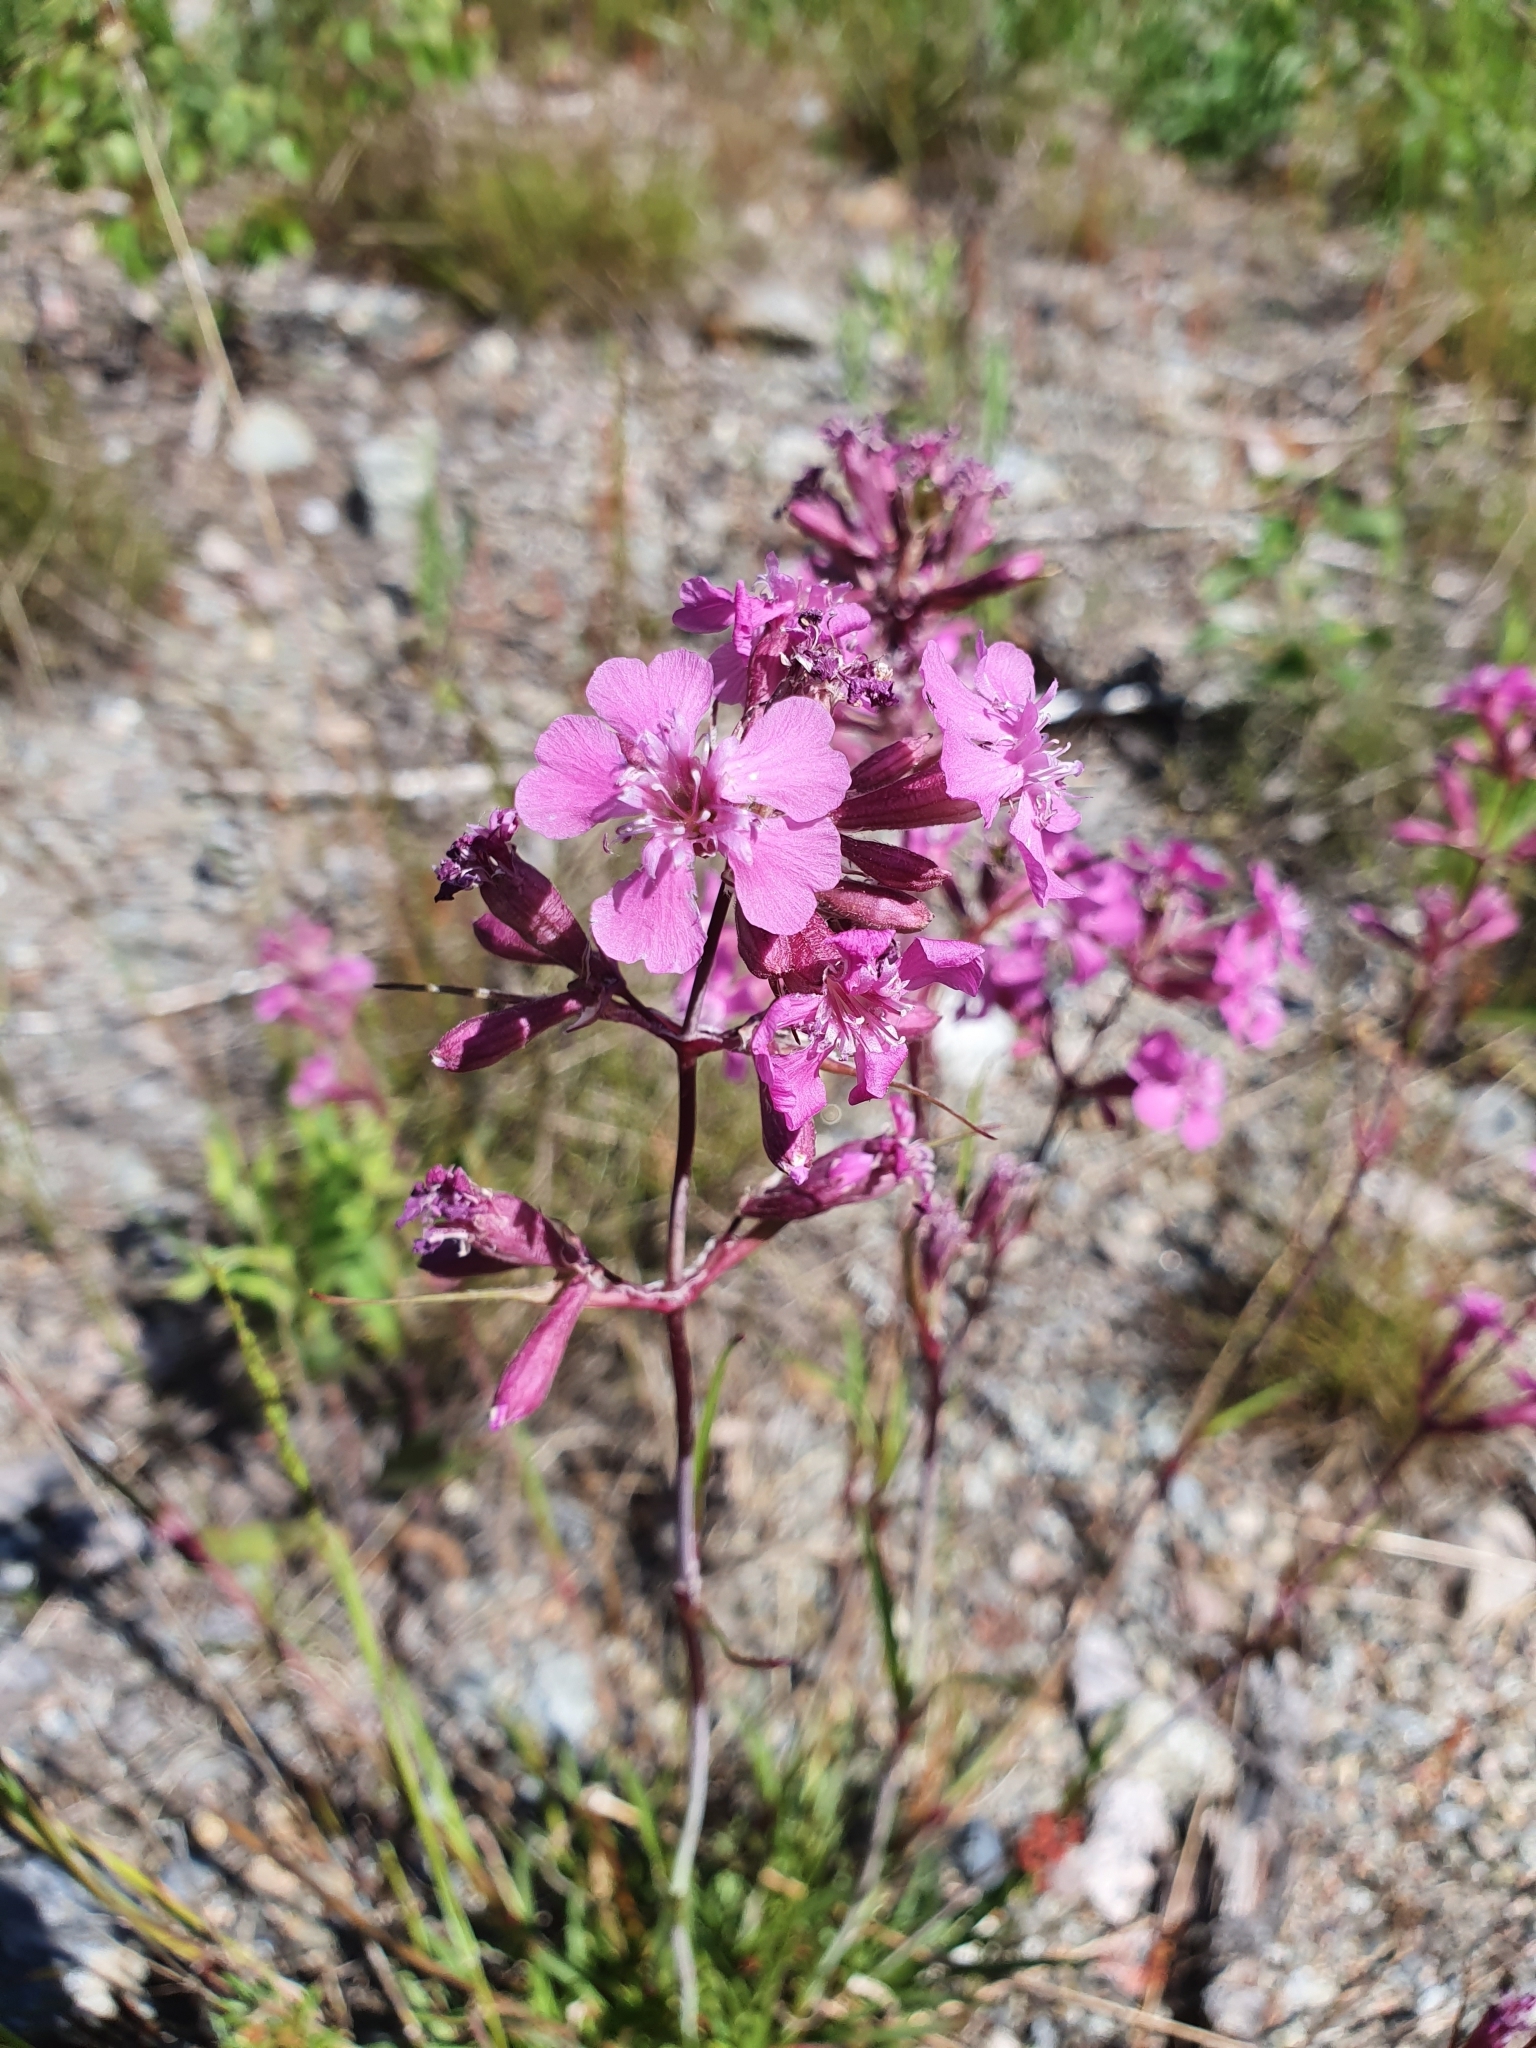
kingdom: Plantae
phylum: Tracheophyta
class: Magnoliopsida
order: Caryophyllales
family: Caryophyllaceae
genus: Viscaria
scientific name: Viscaria vulgaris
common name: Clammy campion
